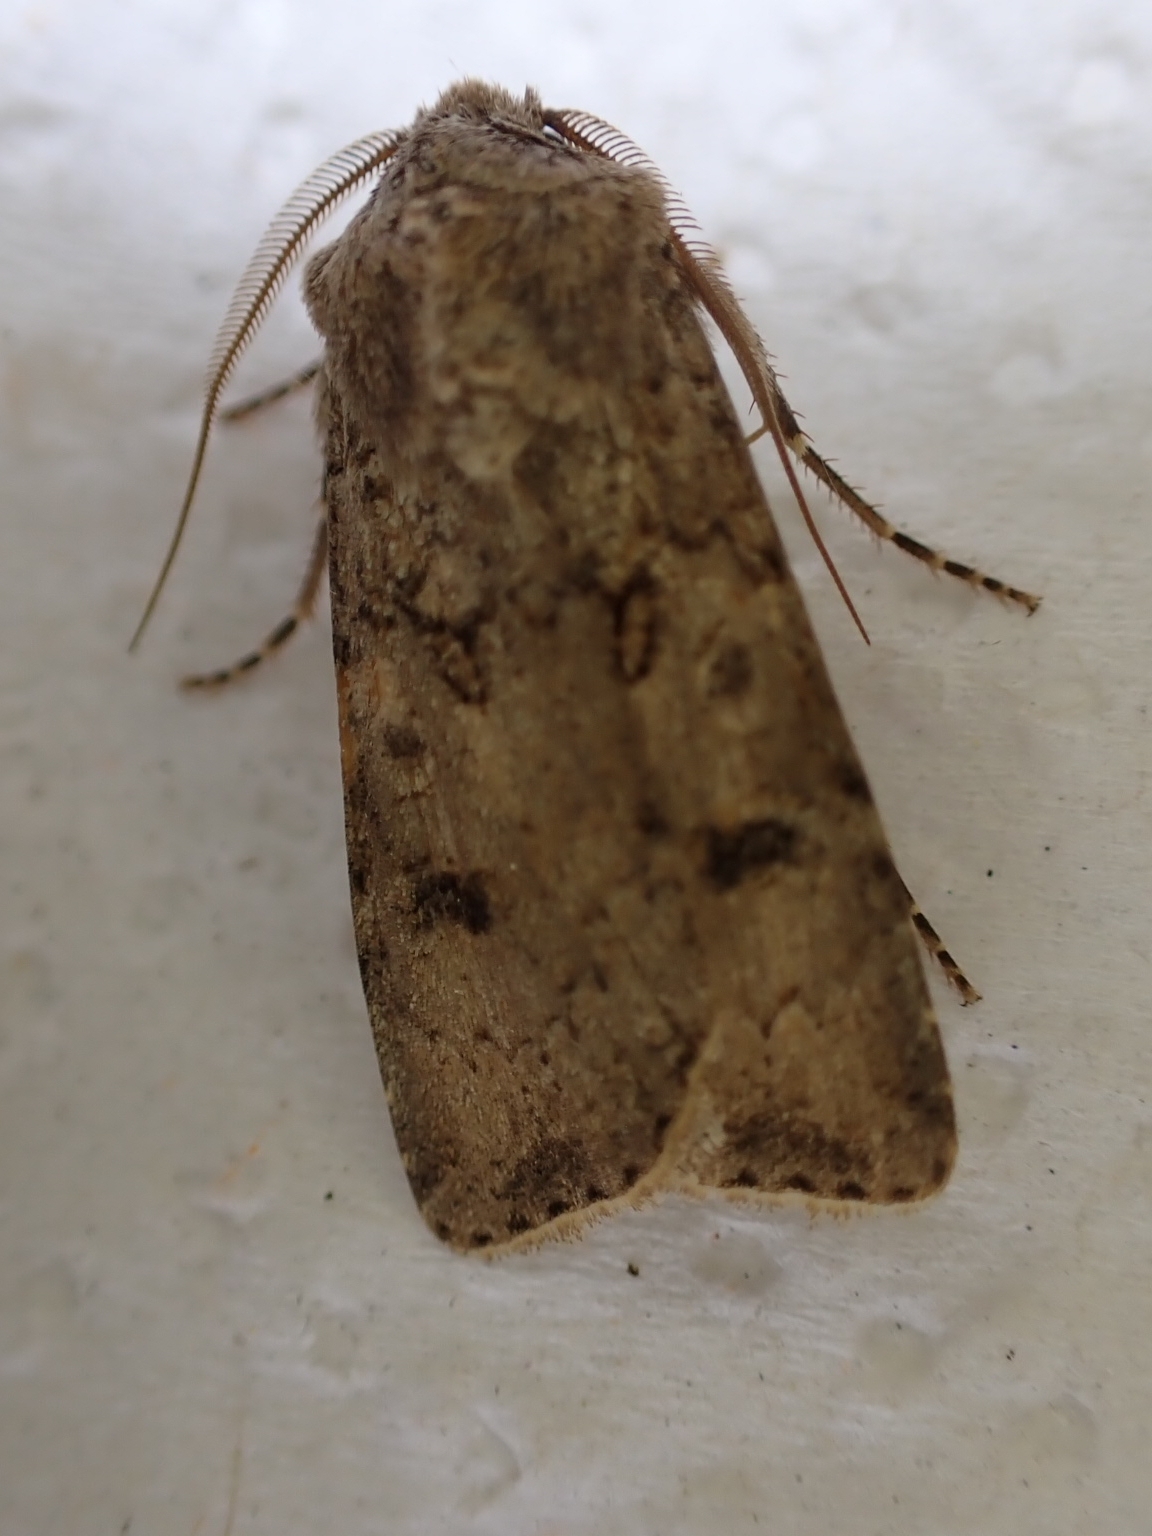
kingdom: Animalia
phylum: Arthropoda
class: Insecta
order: Lepidoptera
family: Noctuidae
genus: Agrotis
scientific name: Agrotis segetum
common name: Turnip moth
